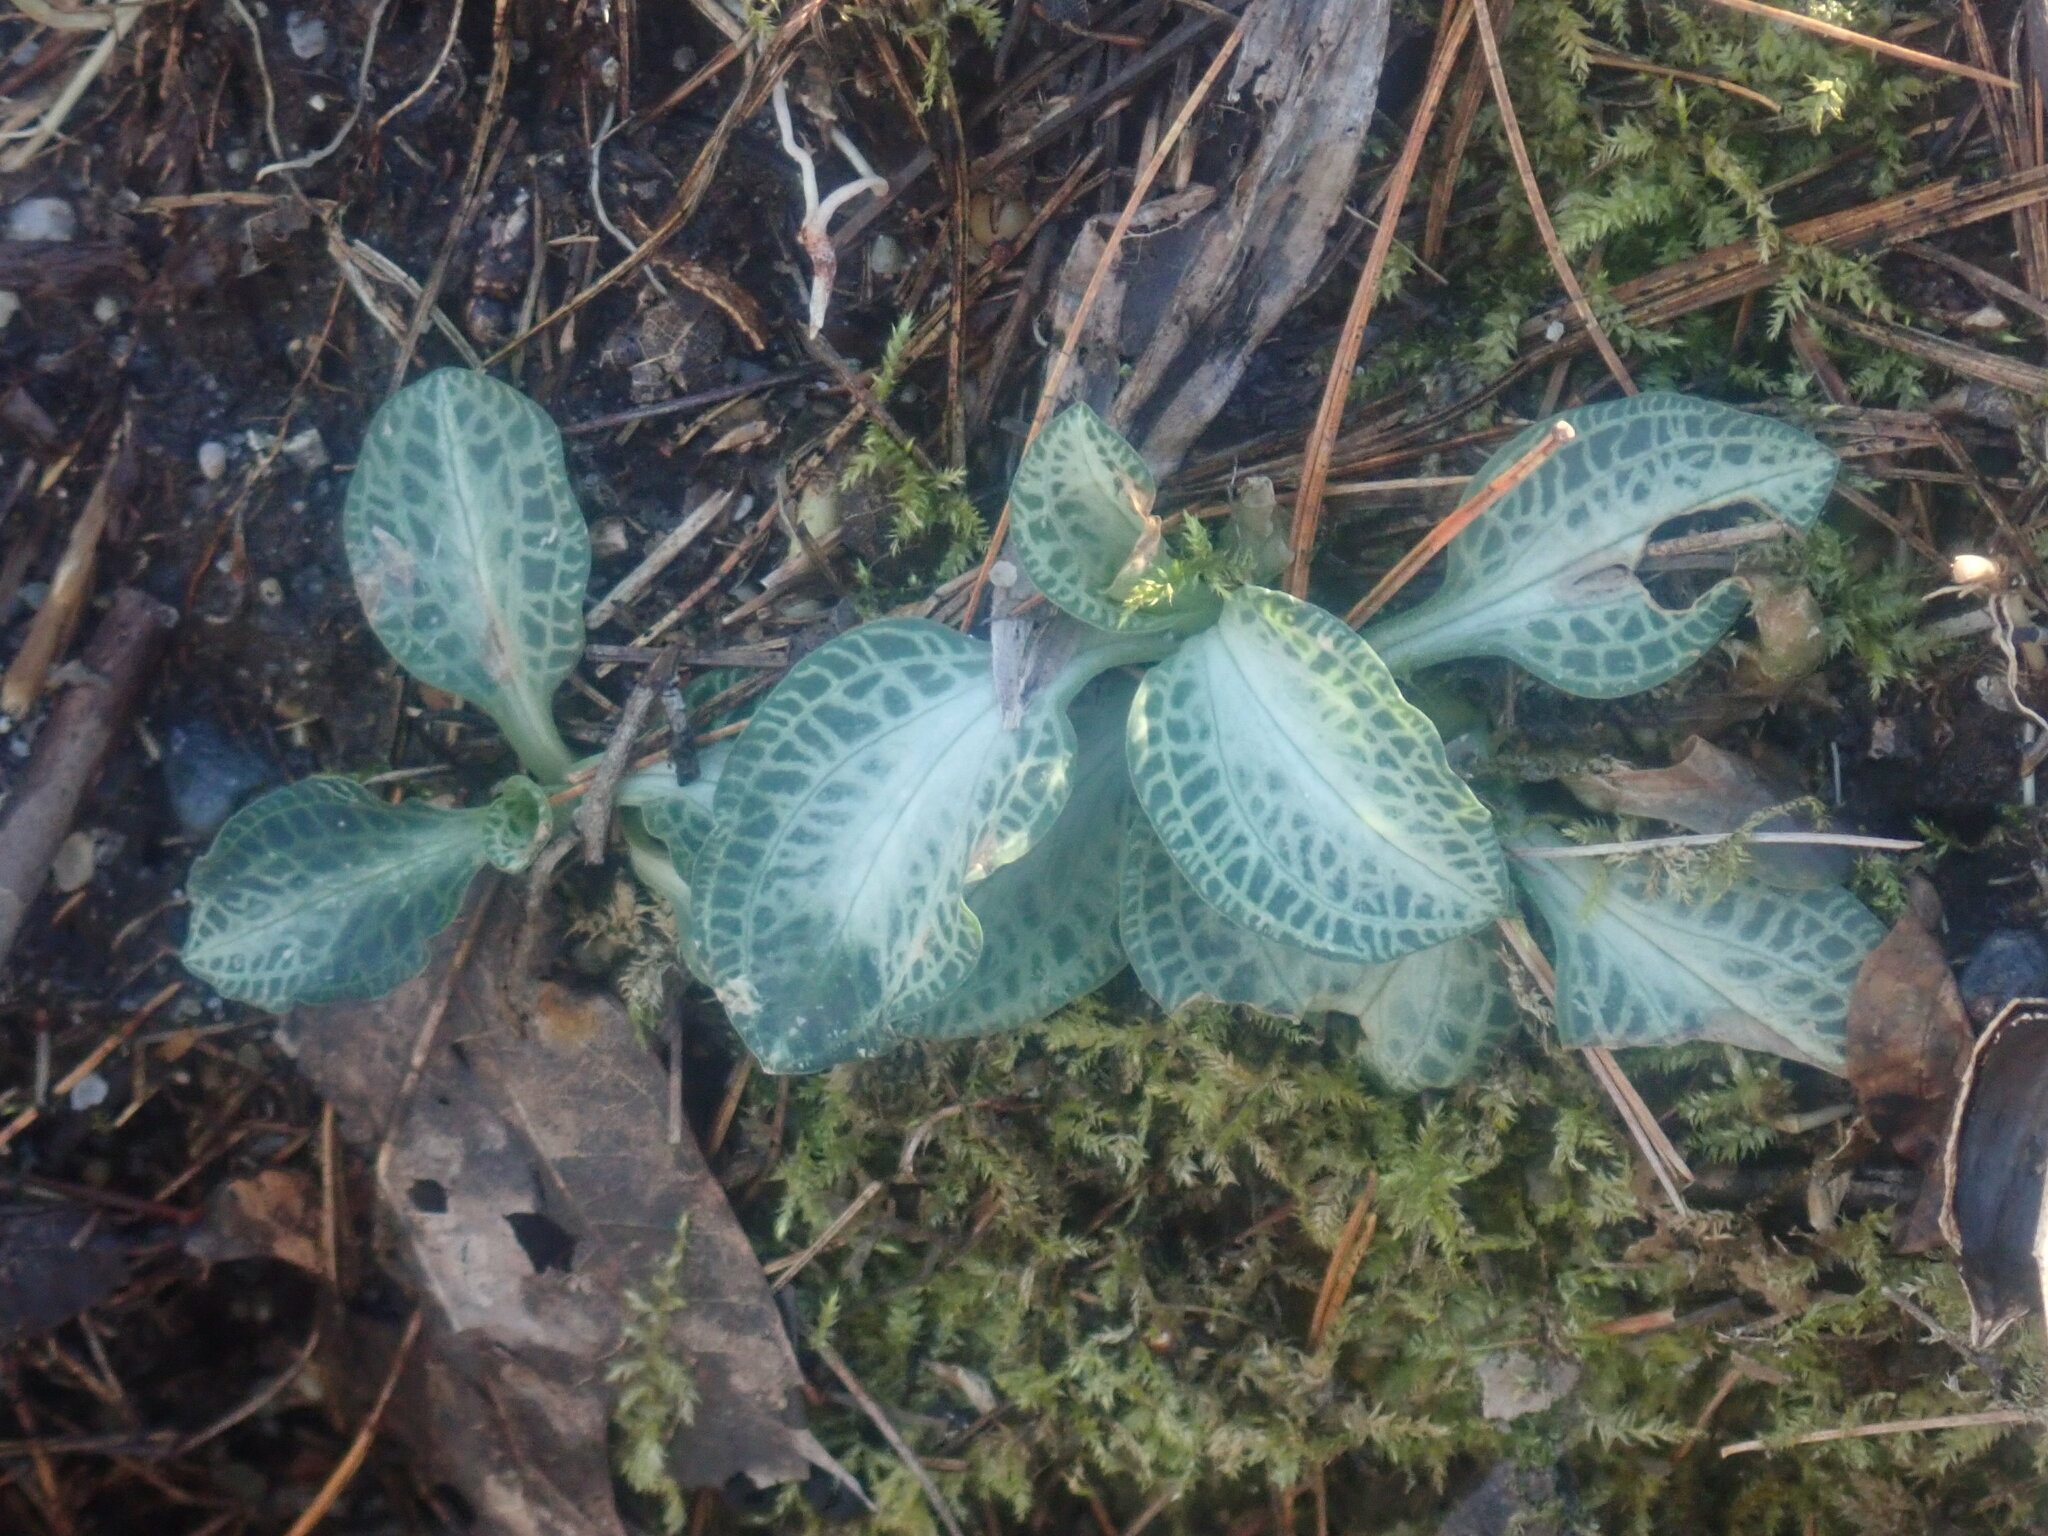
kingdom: Plantae
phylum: Tracheophyta
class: Liliopsida
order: Asparagales
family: Orchidaceae
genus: Goodyera
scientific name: Goodyera pubescens
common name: Downy rattlesnake-plantain
